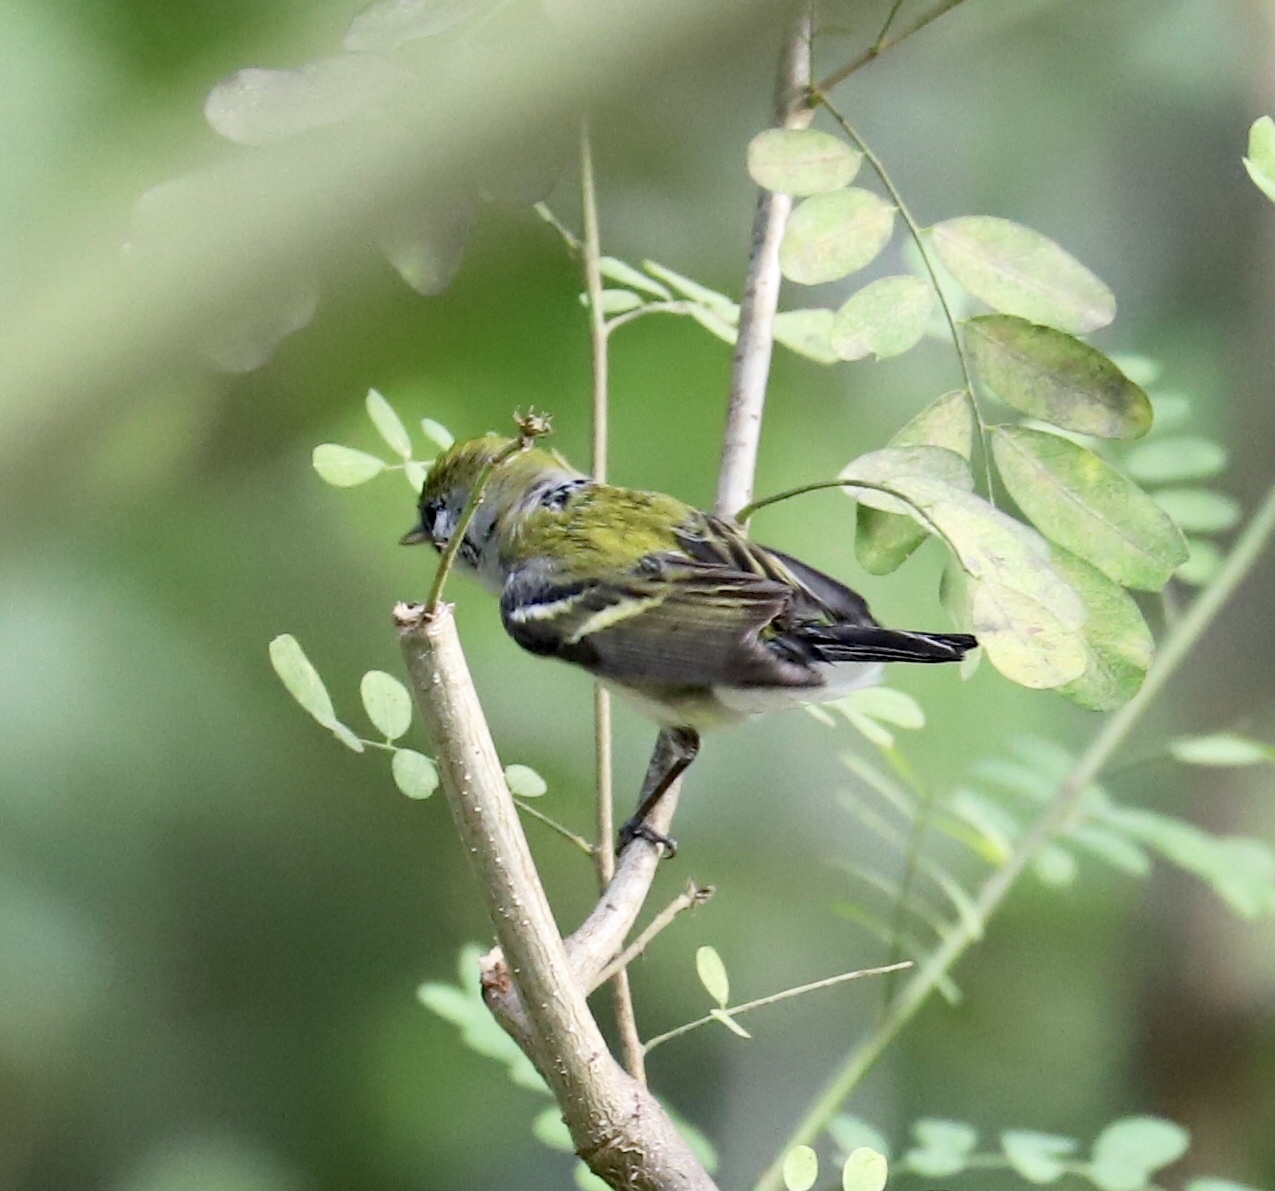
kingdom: Animalia
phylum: Chordata
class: Aves
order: Passeriformes
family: Parulidae
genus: Setophaga
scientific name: Setophaga pensylvanica
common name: Chestnut-sided warbler
